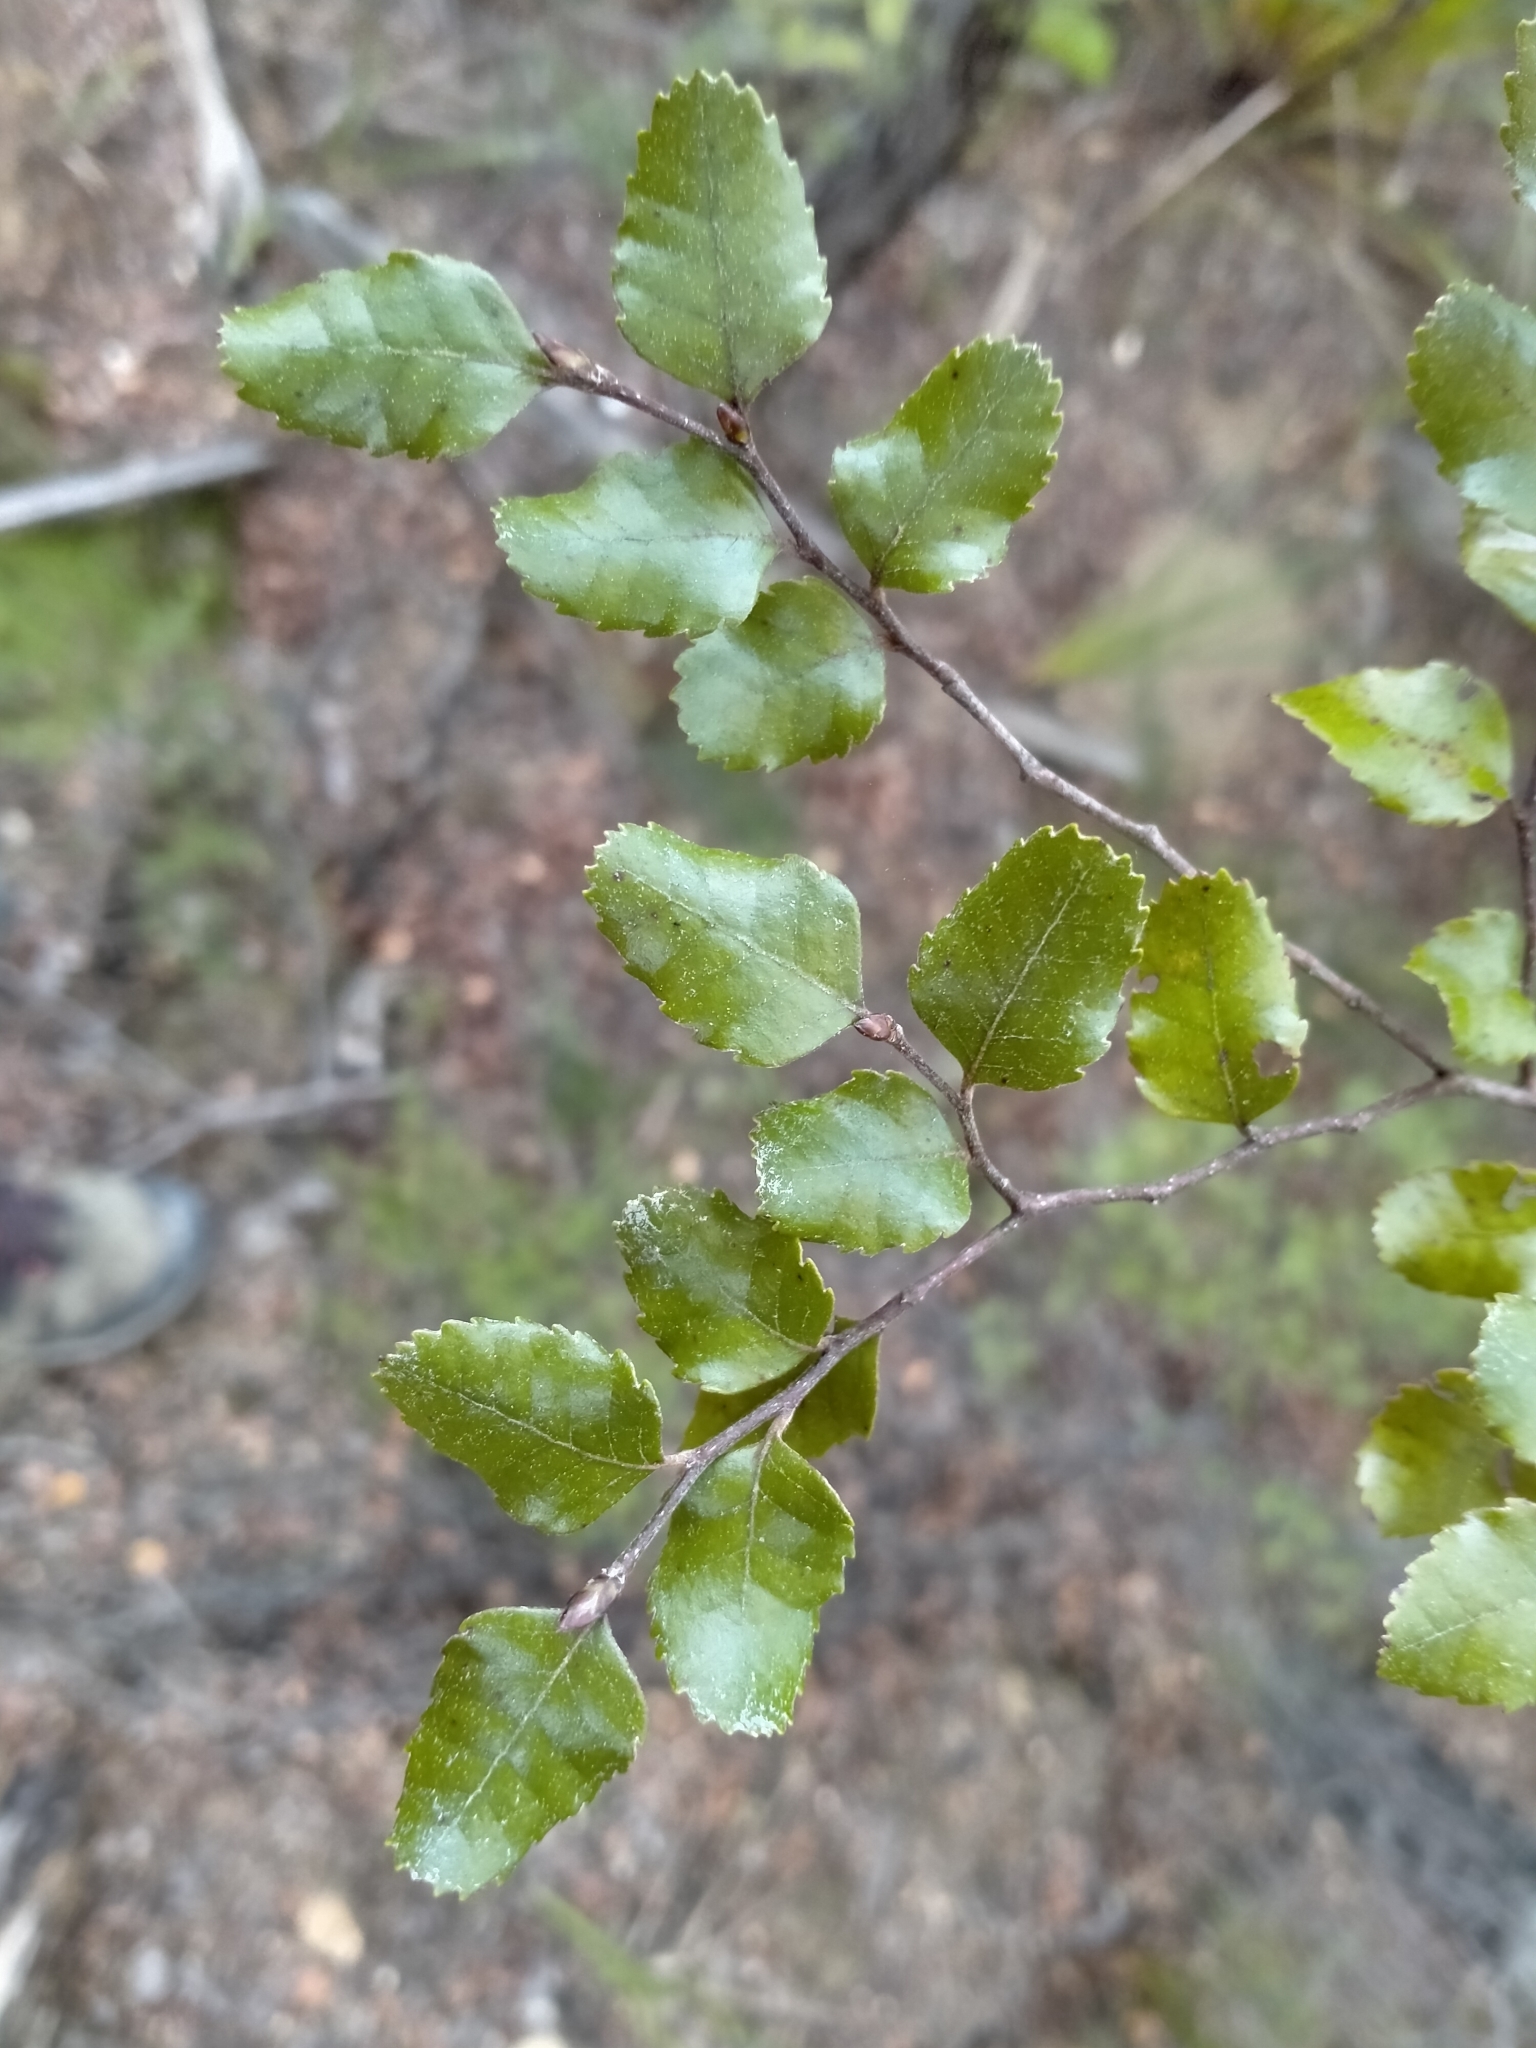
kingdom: Plantae
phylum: Tracheophyta
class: Magnoliopsida
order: Fagales
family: Nothofagaceae
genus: Nothofagus
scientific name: Nothofagus truncata
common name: Hard beech
